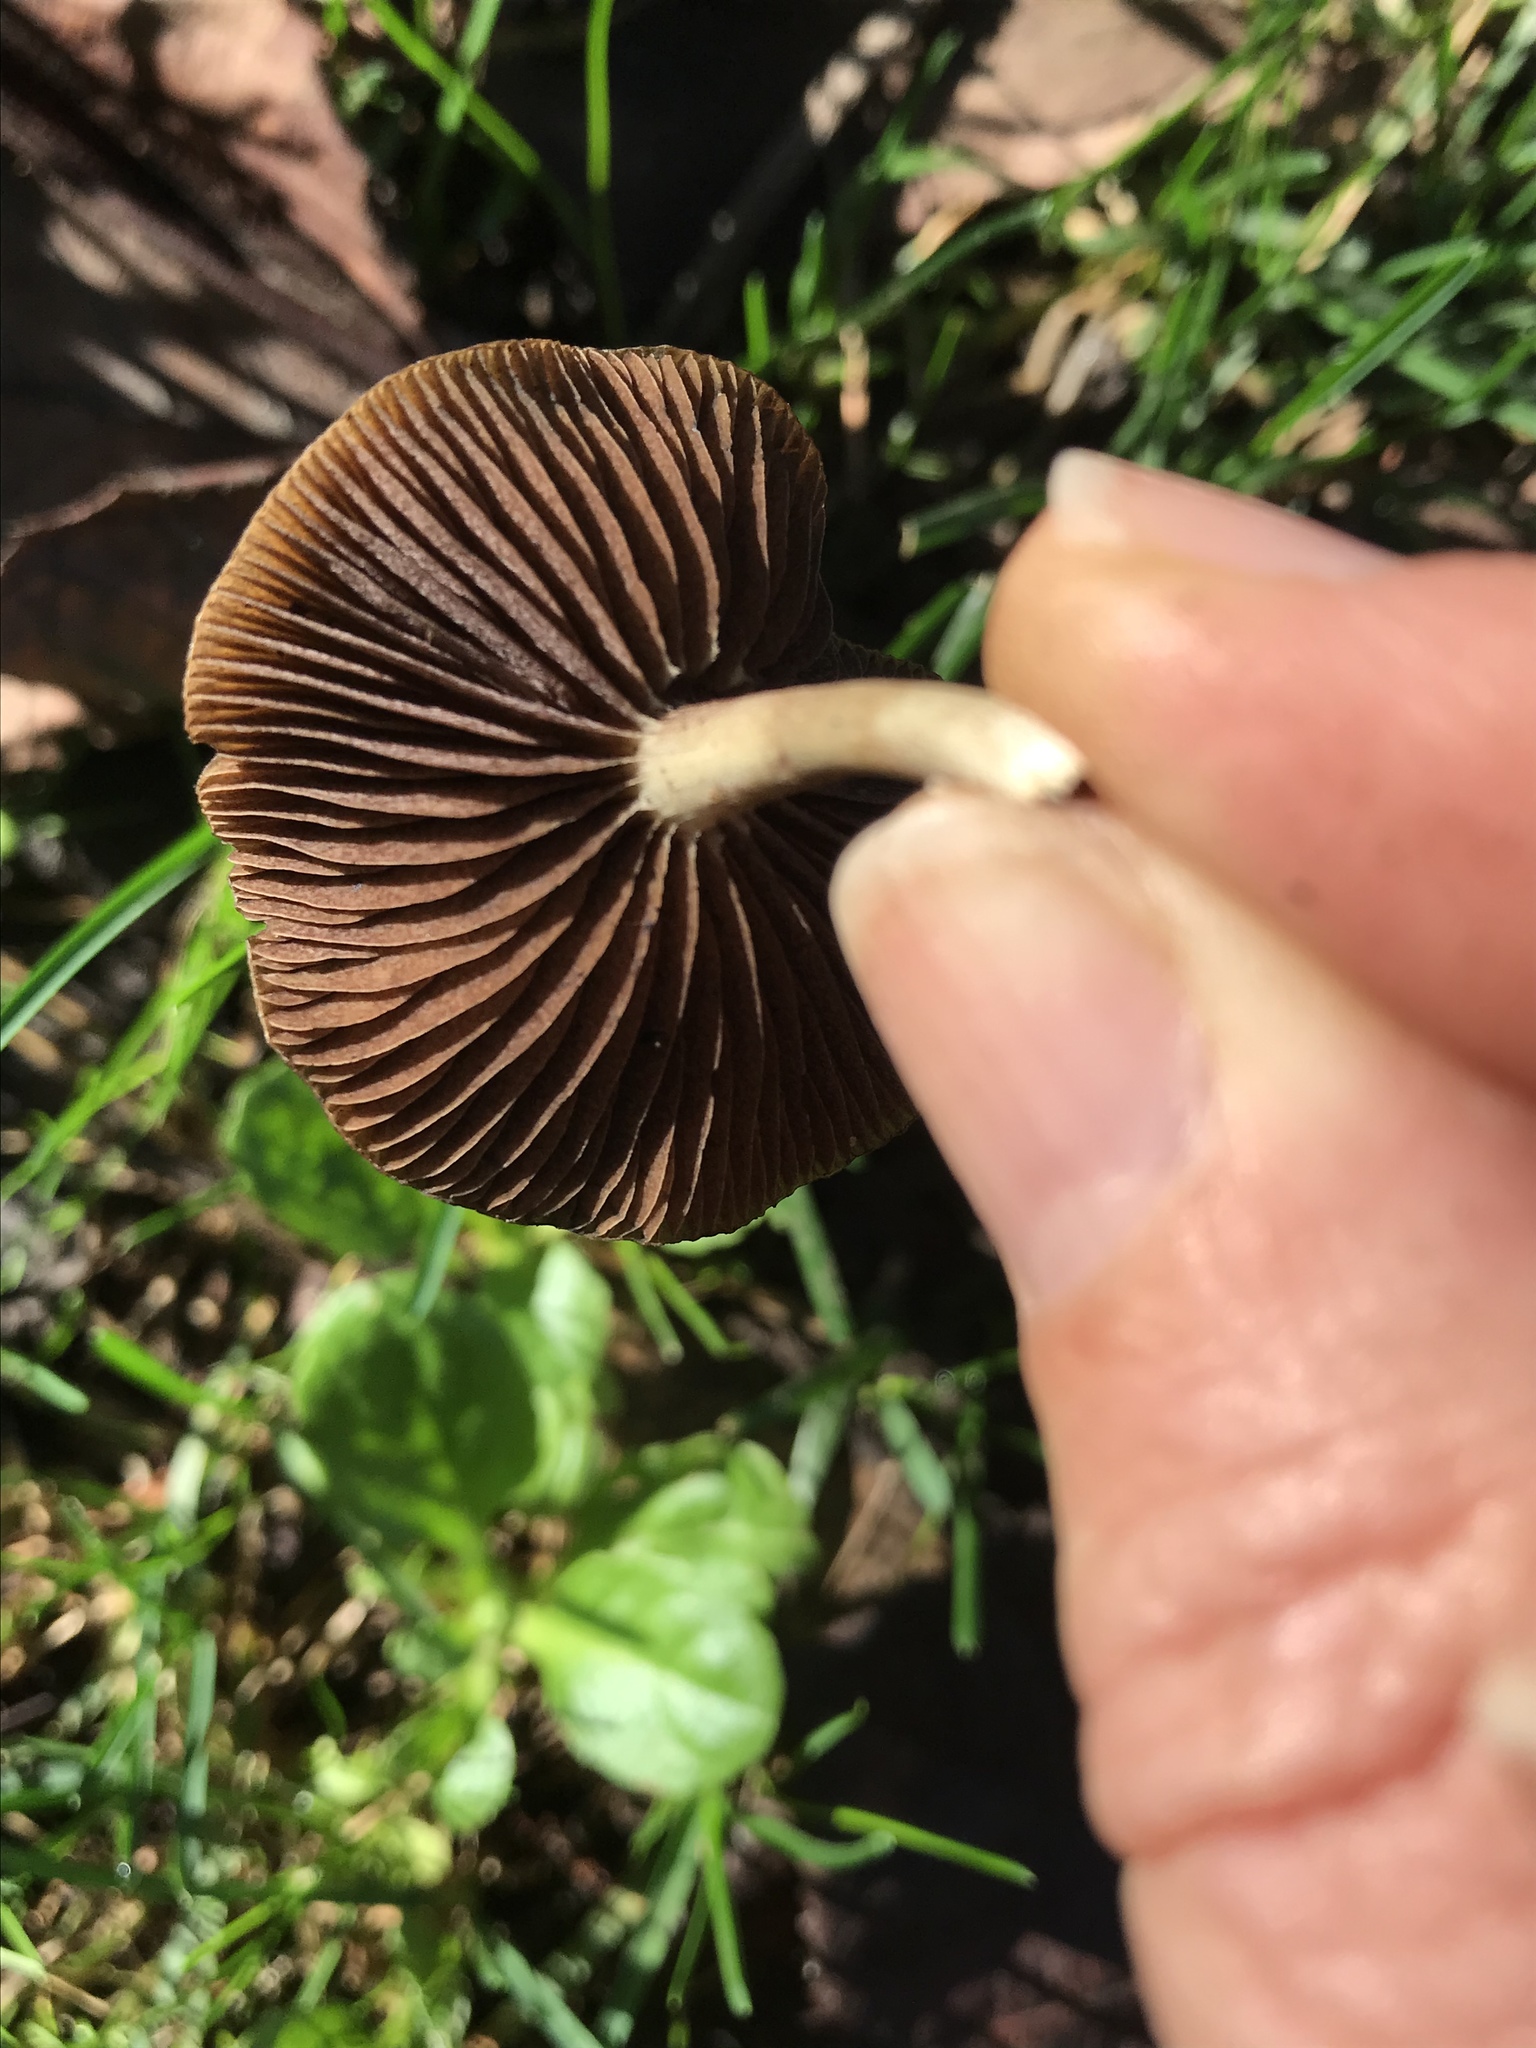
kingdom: Fungi
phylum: Basidiomycota
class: Agaricomycetes
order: Agaricales
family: Hymenogastraceae
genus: Psilocybe
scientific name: Psilocybe cyanescens
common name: Blueleg brownie
